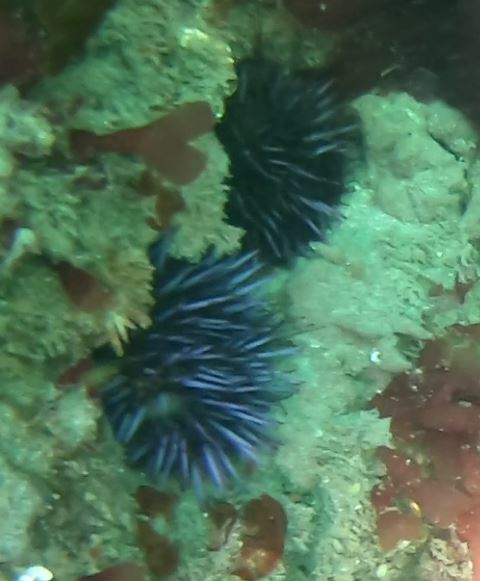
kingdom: Animalia
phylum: Echinodermata
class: Echinoidea
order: Camarodonta
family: Strongylocentrotidae
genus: Strongylocentrotus
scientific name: Strongylocentrotus purpuratus
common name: Purple sea urchin
